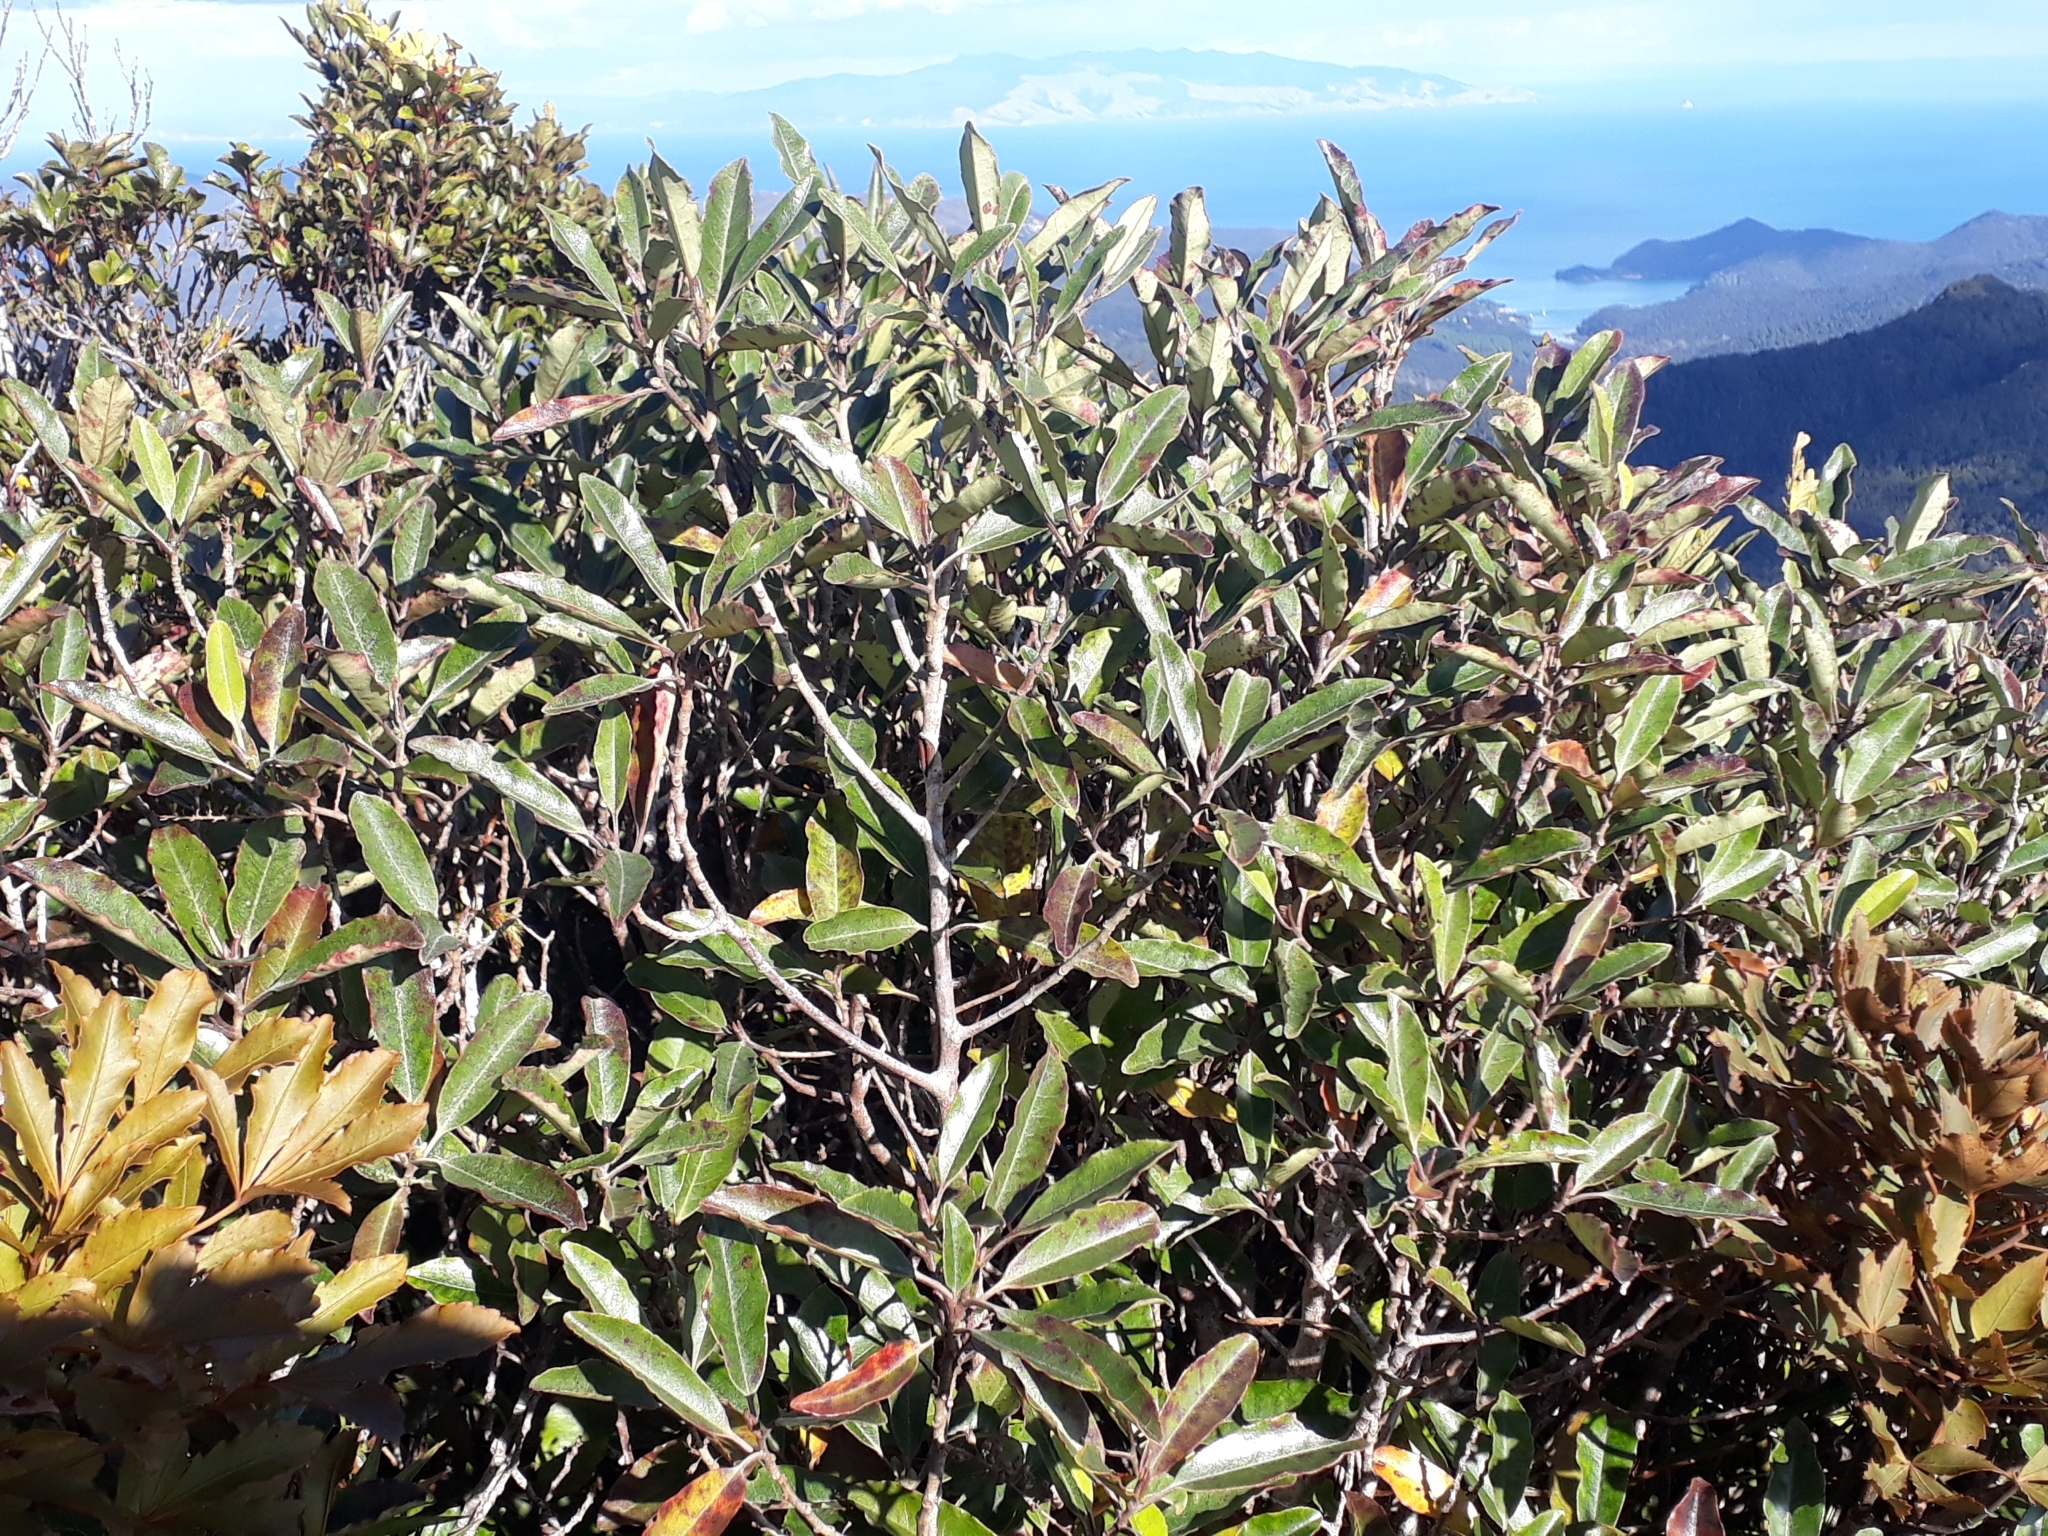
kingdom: Plantae
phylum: Tracheophyta
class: Magnoliopsida
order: Paracryphiales
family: Paracryphiaceae
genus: Quintinia
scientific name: Quintinia serrata
